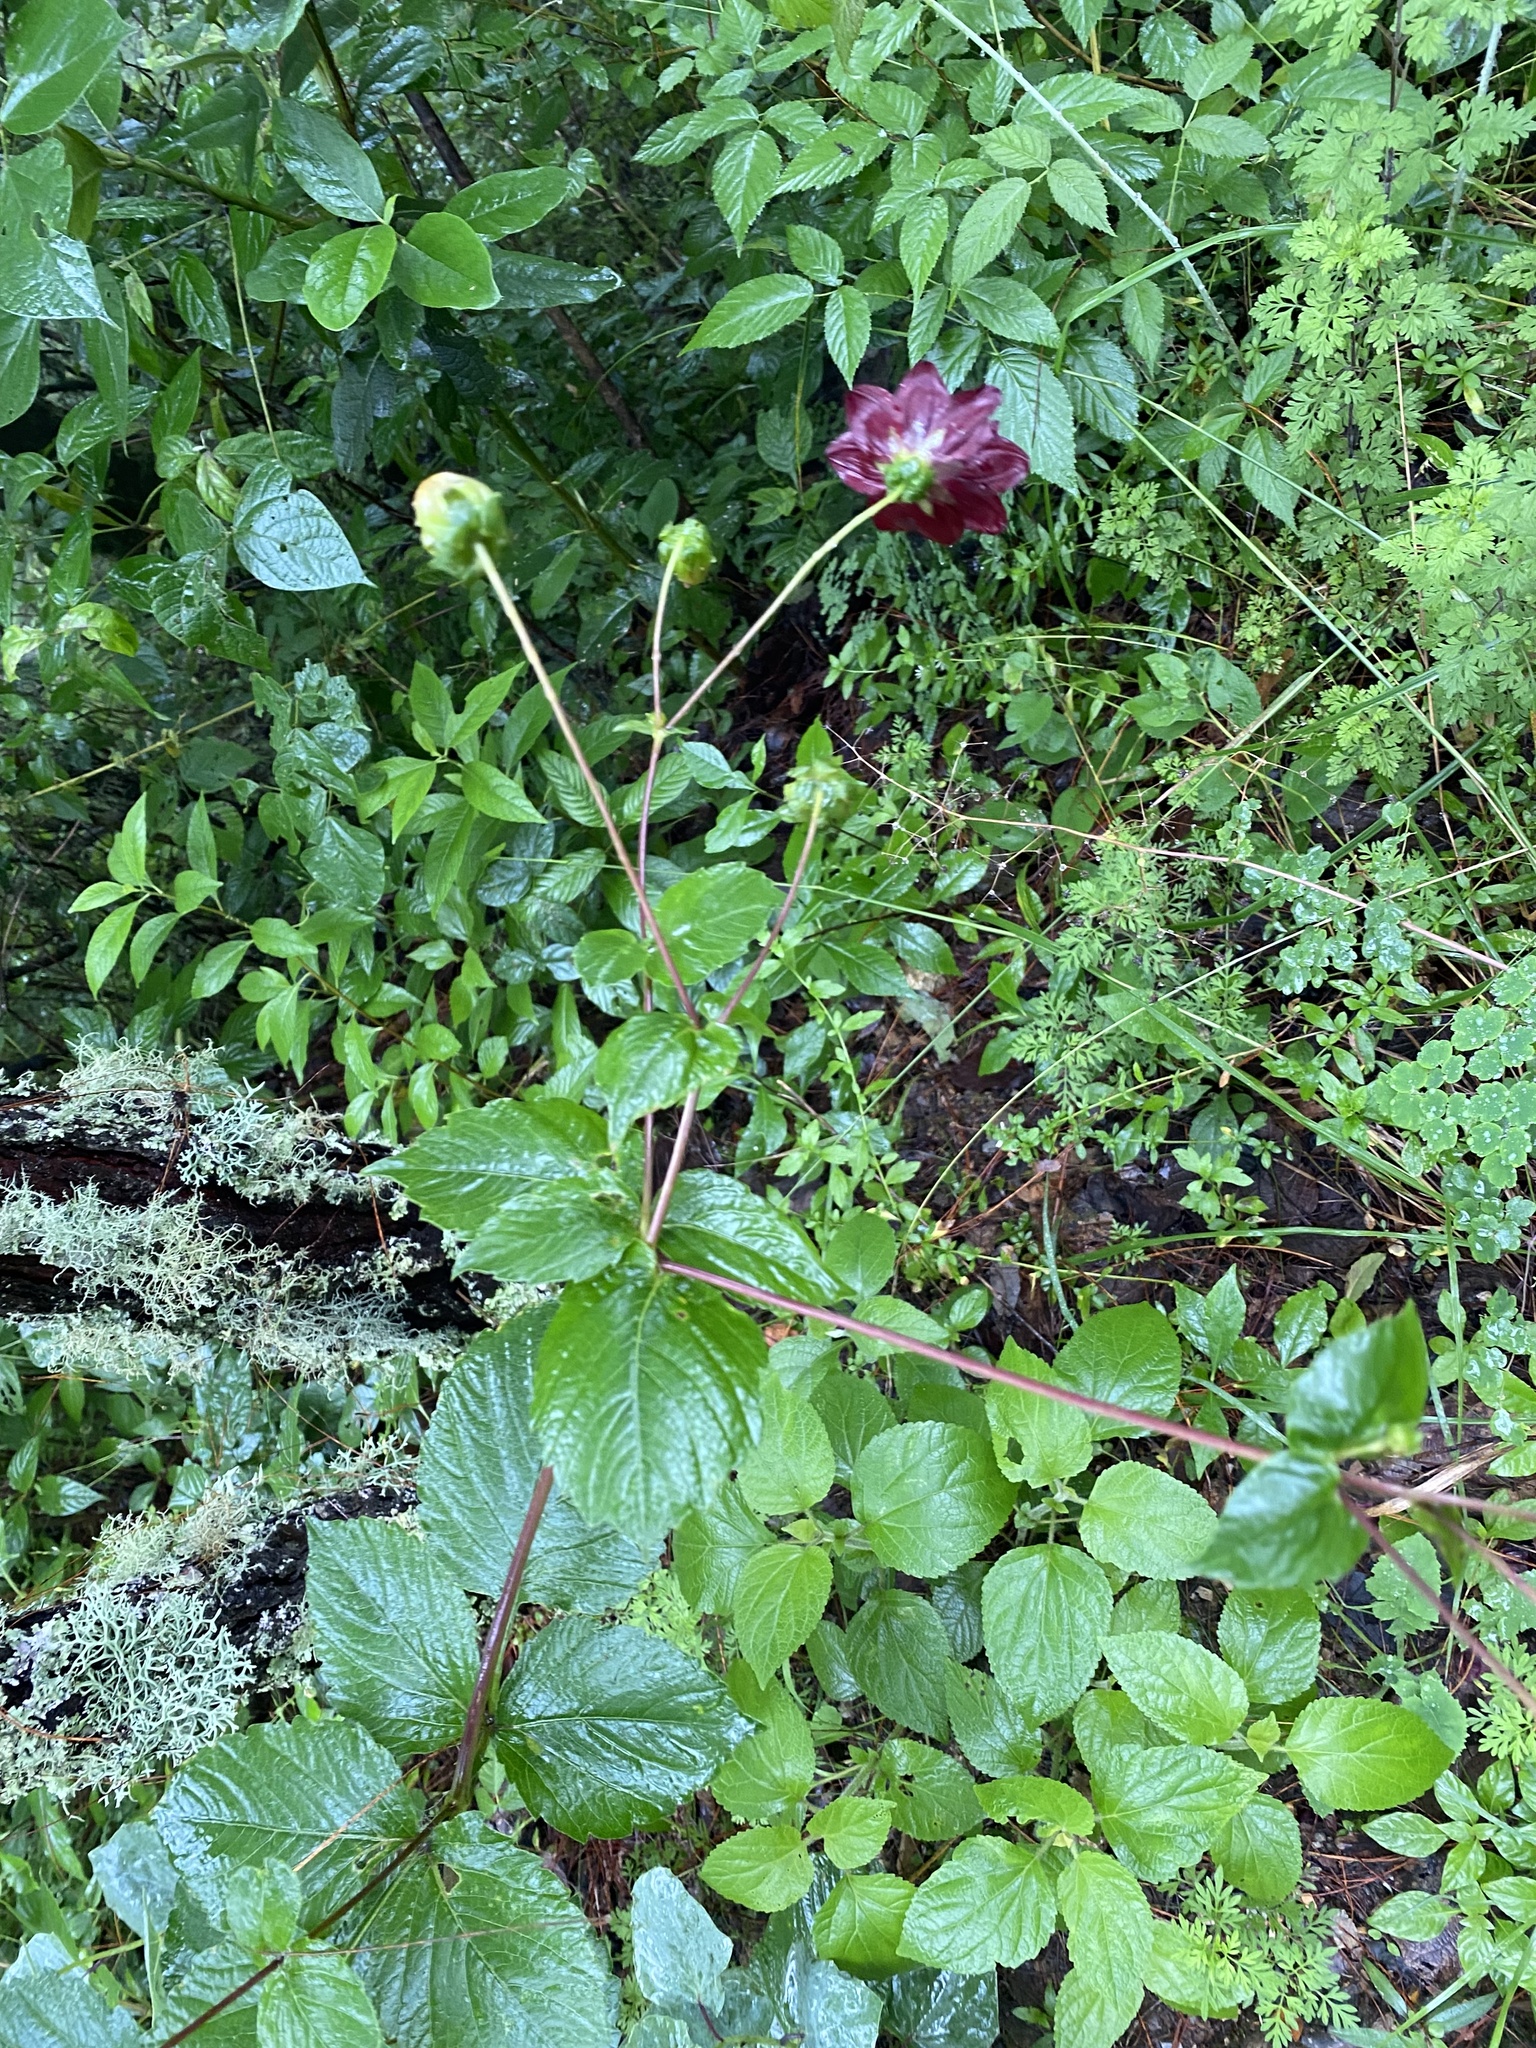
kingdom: Plantae
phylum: Tracheophyta
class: Magnoliopsida
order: Asterales
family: Asteraceae
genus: Dahlia
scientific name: Dahlia coccinea
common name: Red dahlia
